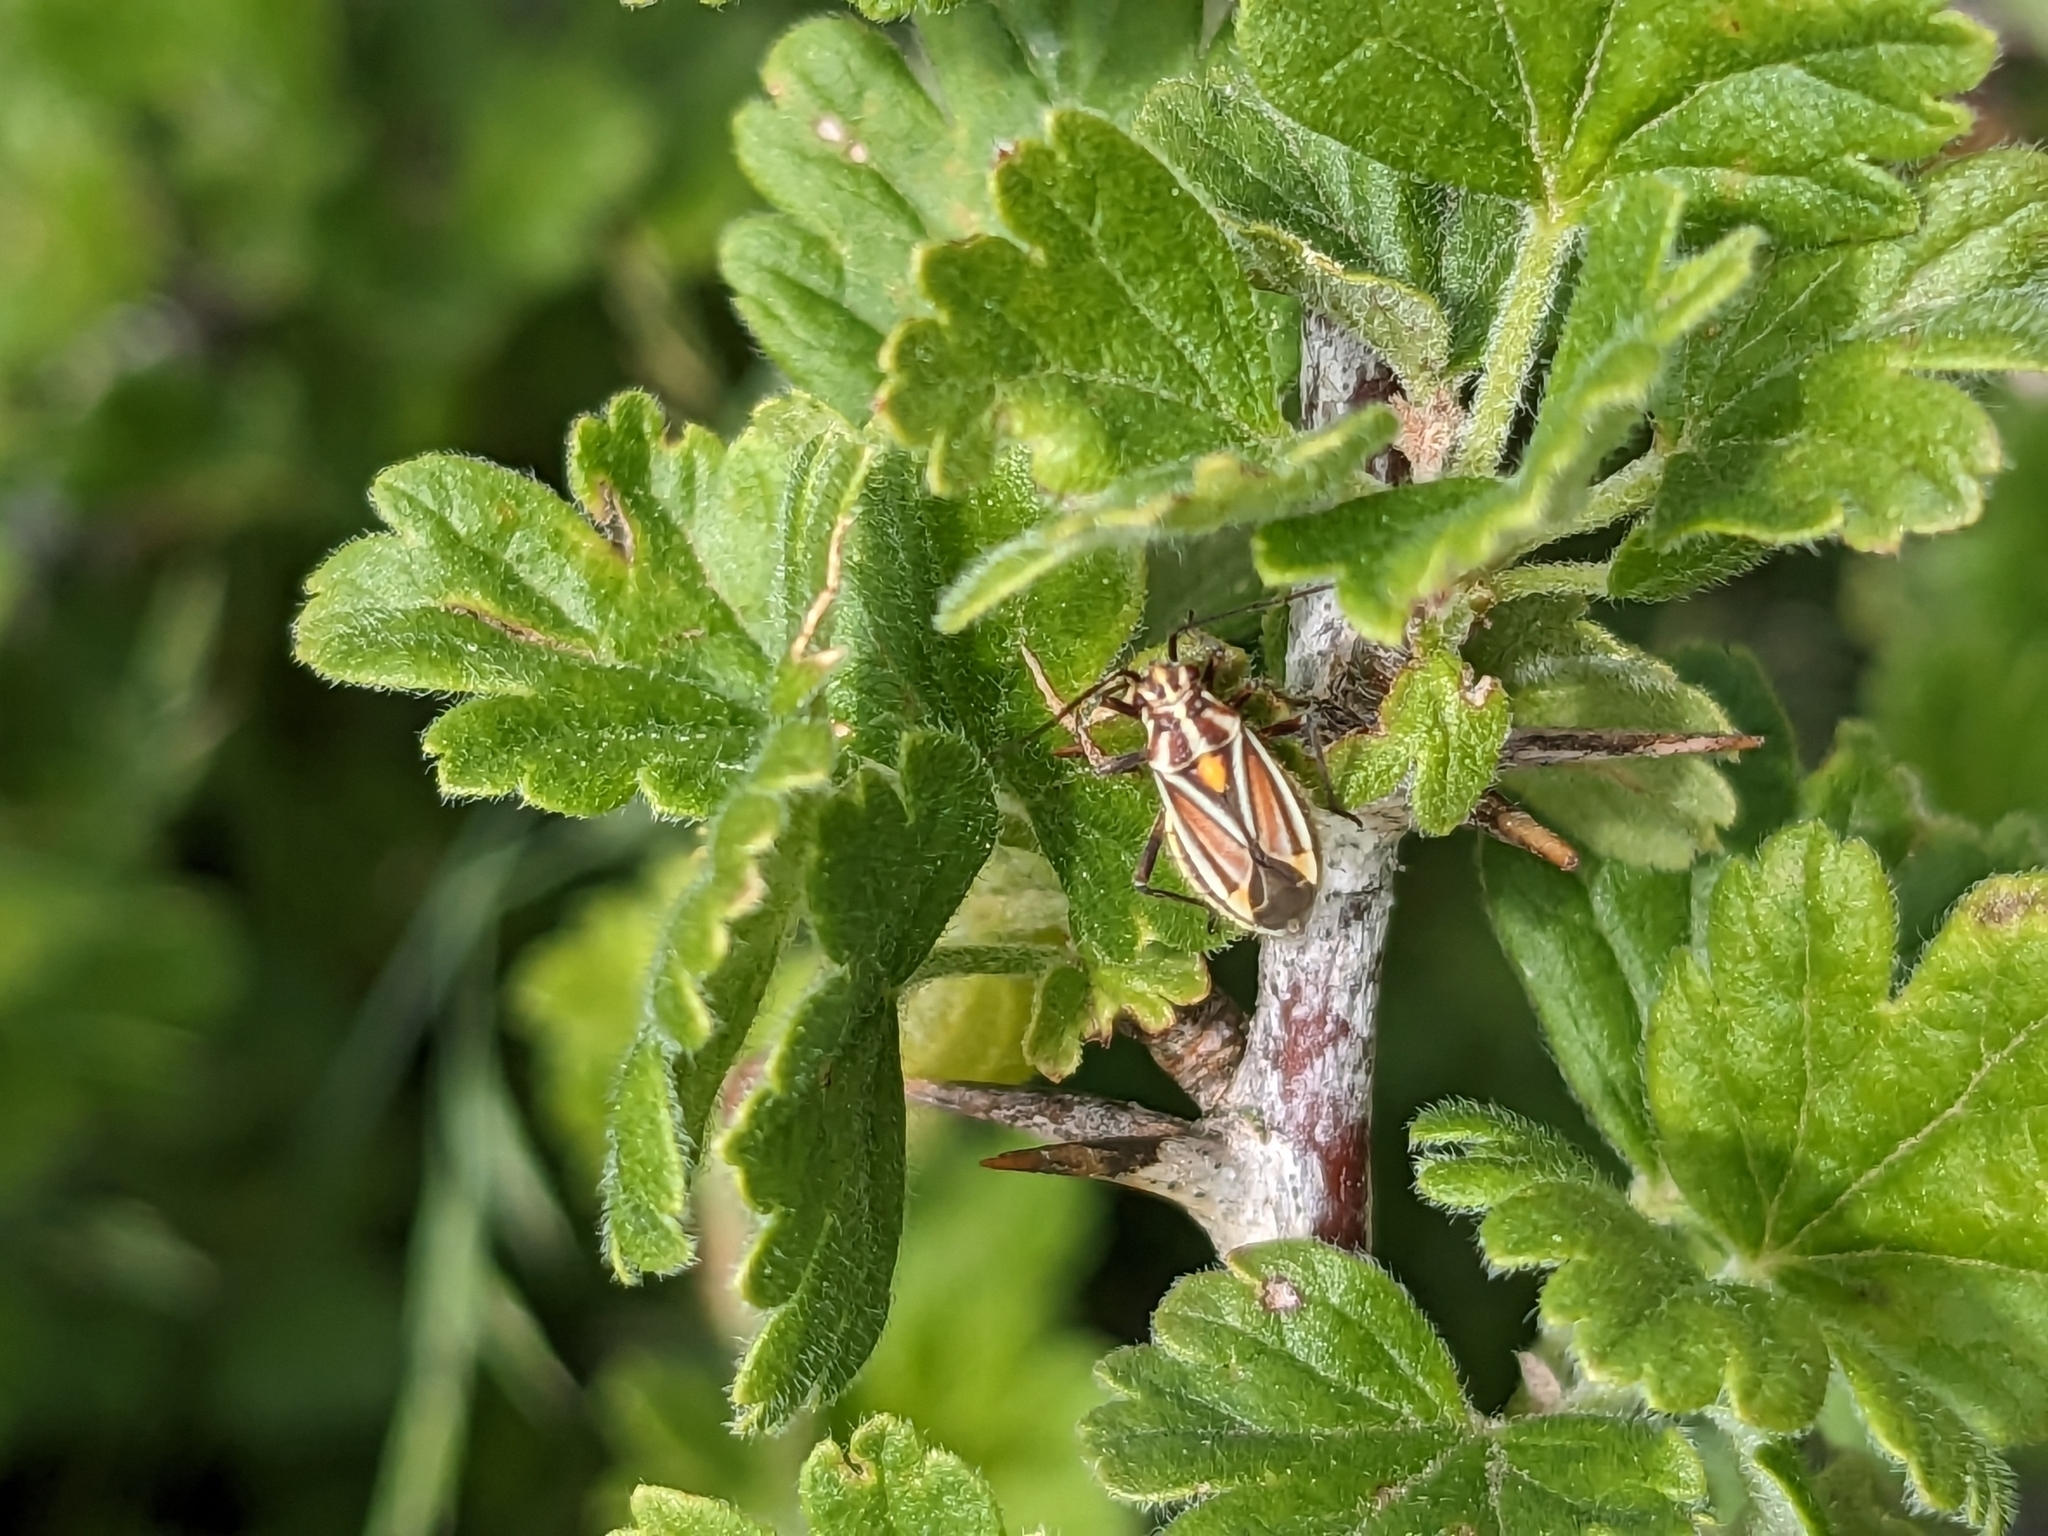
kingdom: Animalia
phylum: Arthropoda
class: Insecta
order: Hemiptera
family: Miridae
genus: Horistus
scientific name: Horistus orientalis
